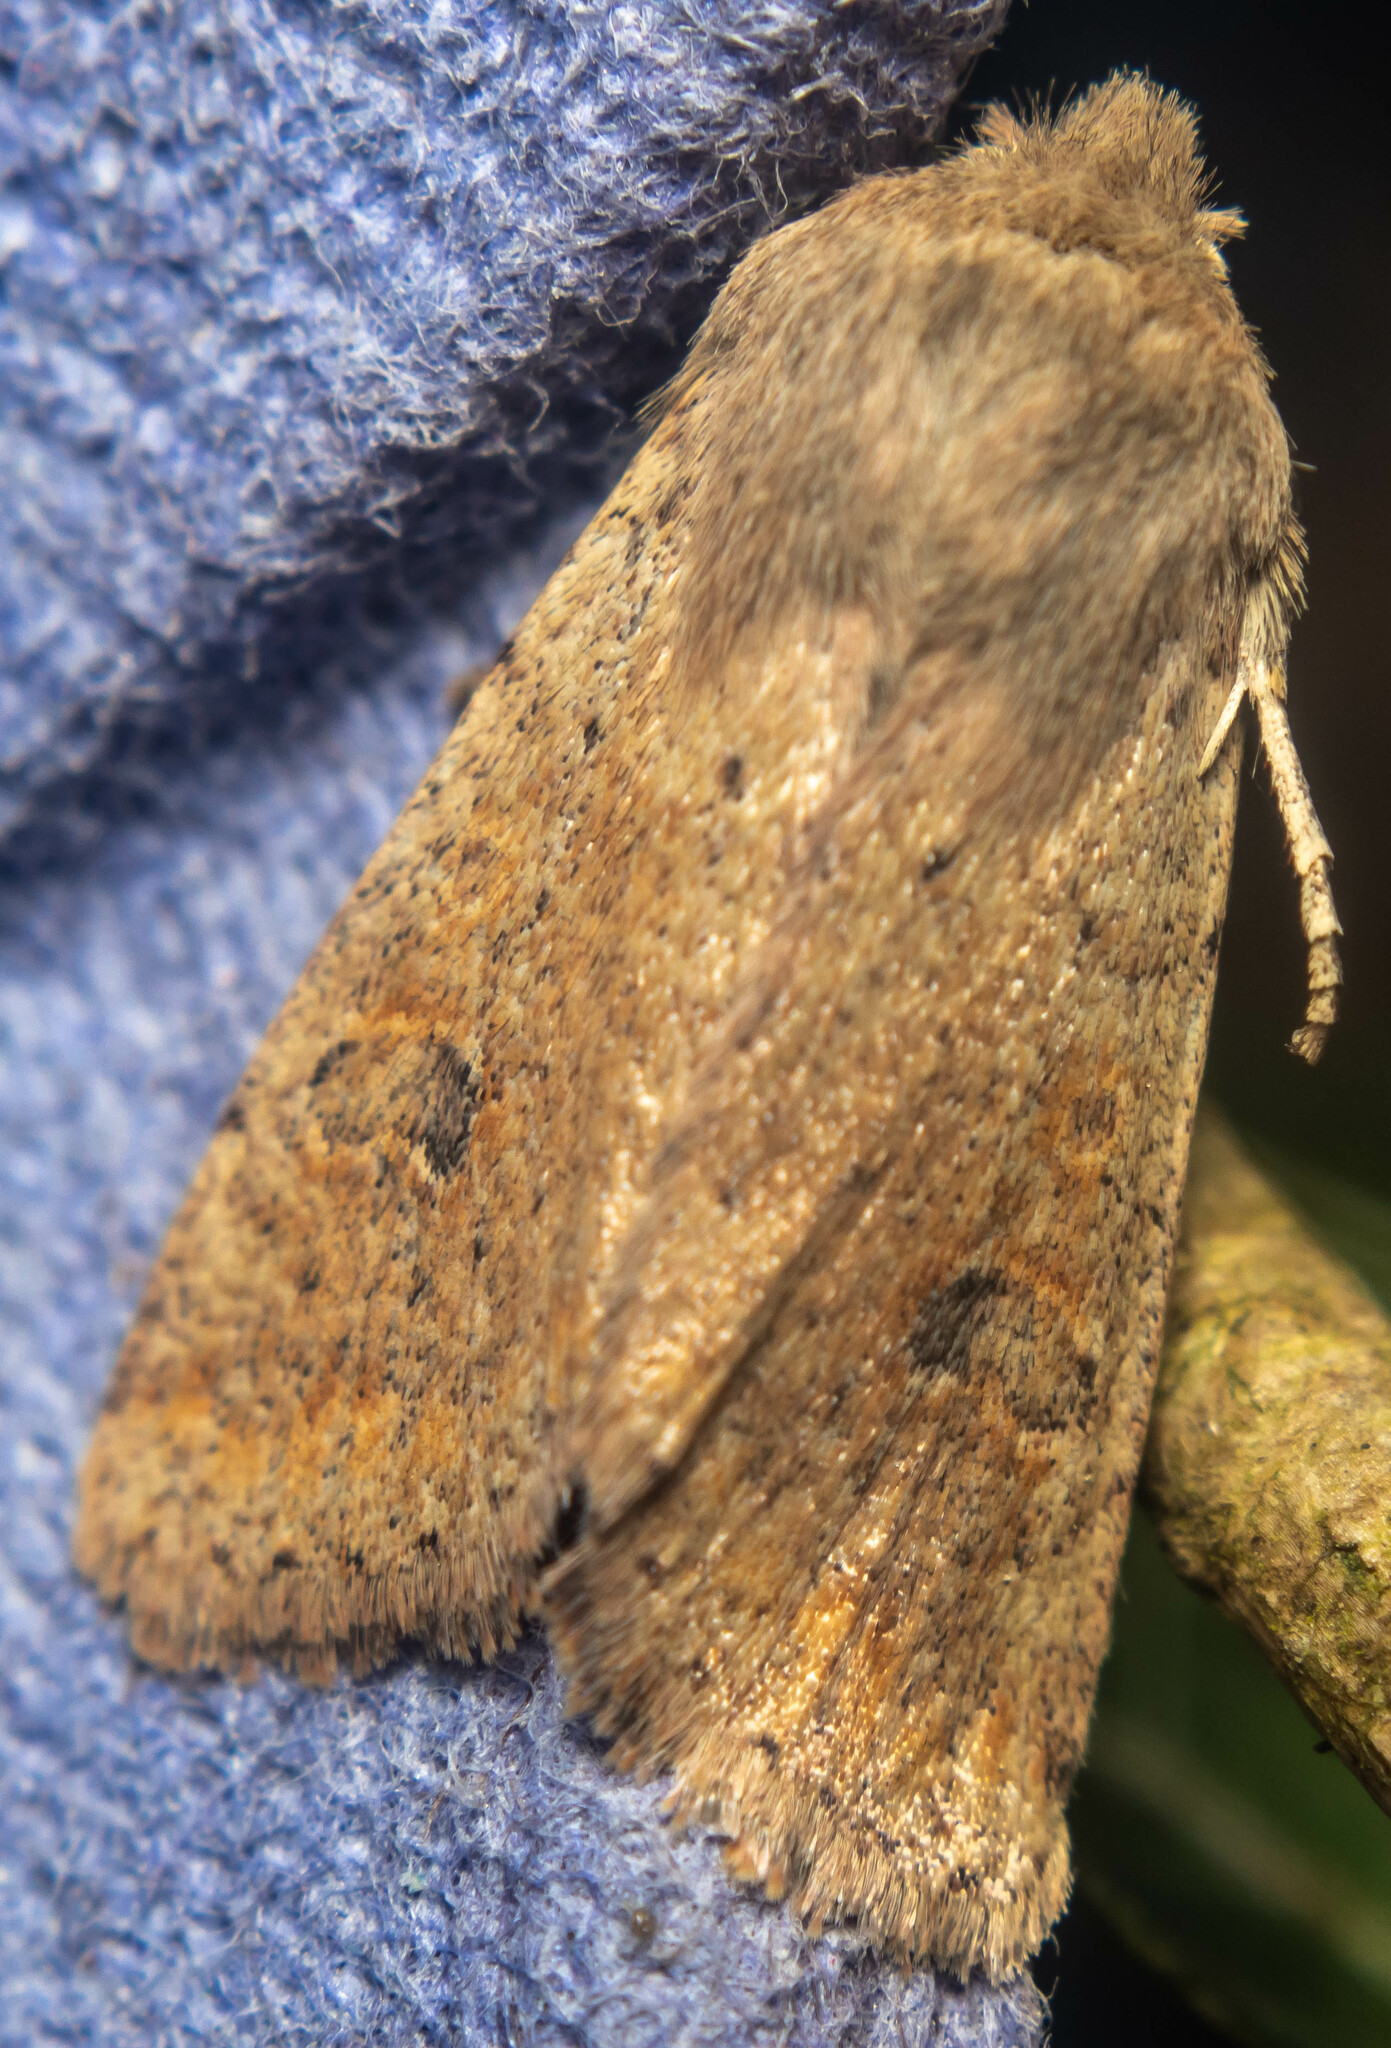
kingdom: Animalia
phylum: Arthropoda
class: Insecta
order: Lepidoptera
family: Noctuidae
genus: Orthosia
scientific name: Orthosia cruda
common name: Small quaker
